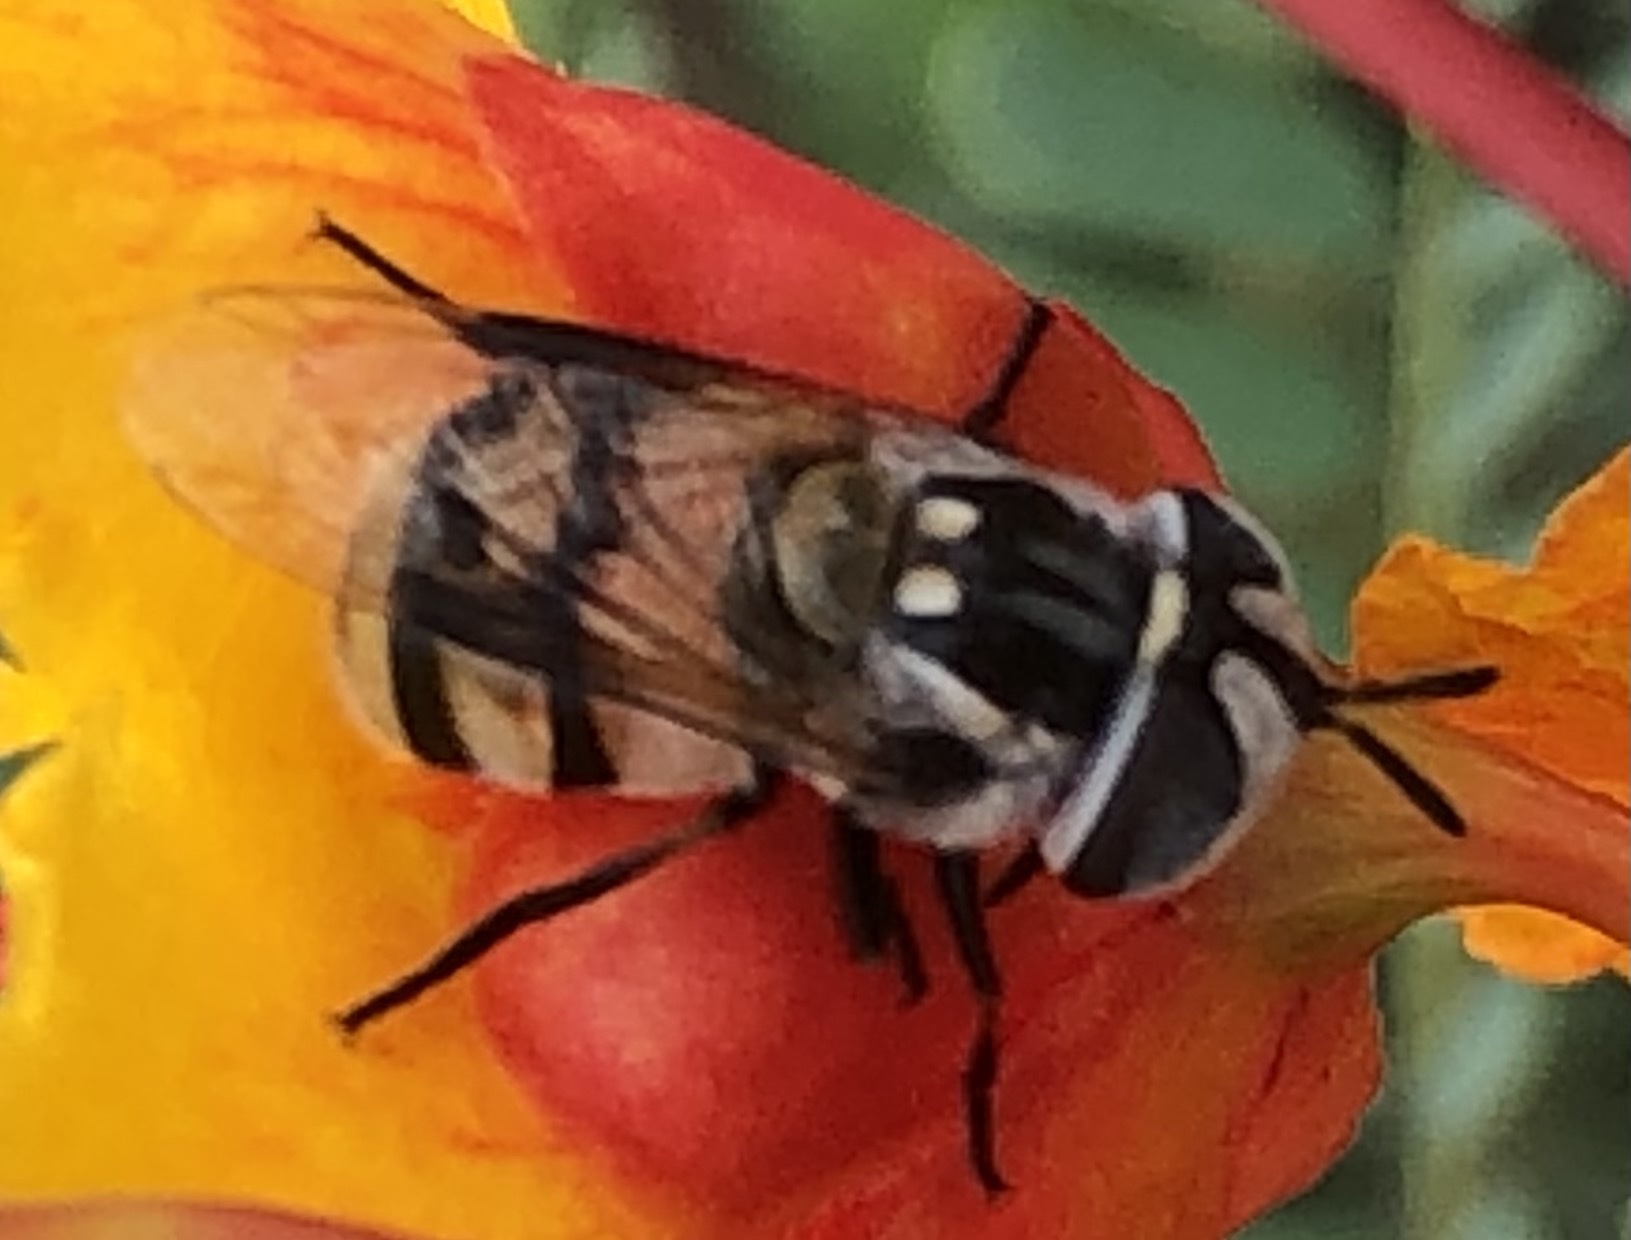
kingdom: Animalia
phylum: Arthropoda
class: Insecta
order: Diptera
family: Syrphidae
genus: Copestylum
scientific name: Copestylum fornax
